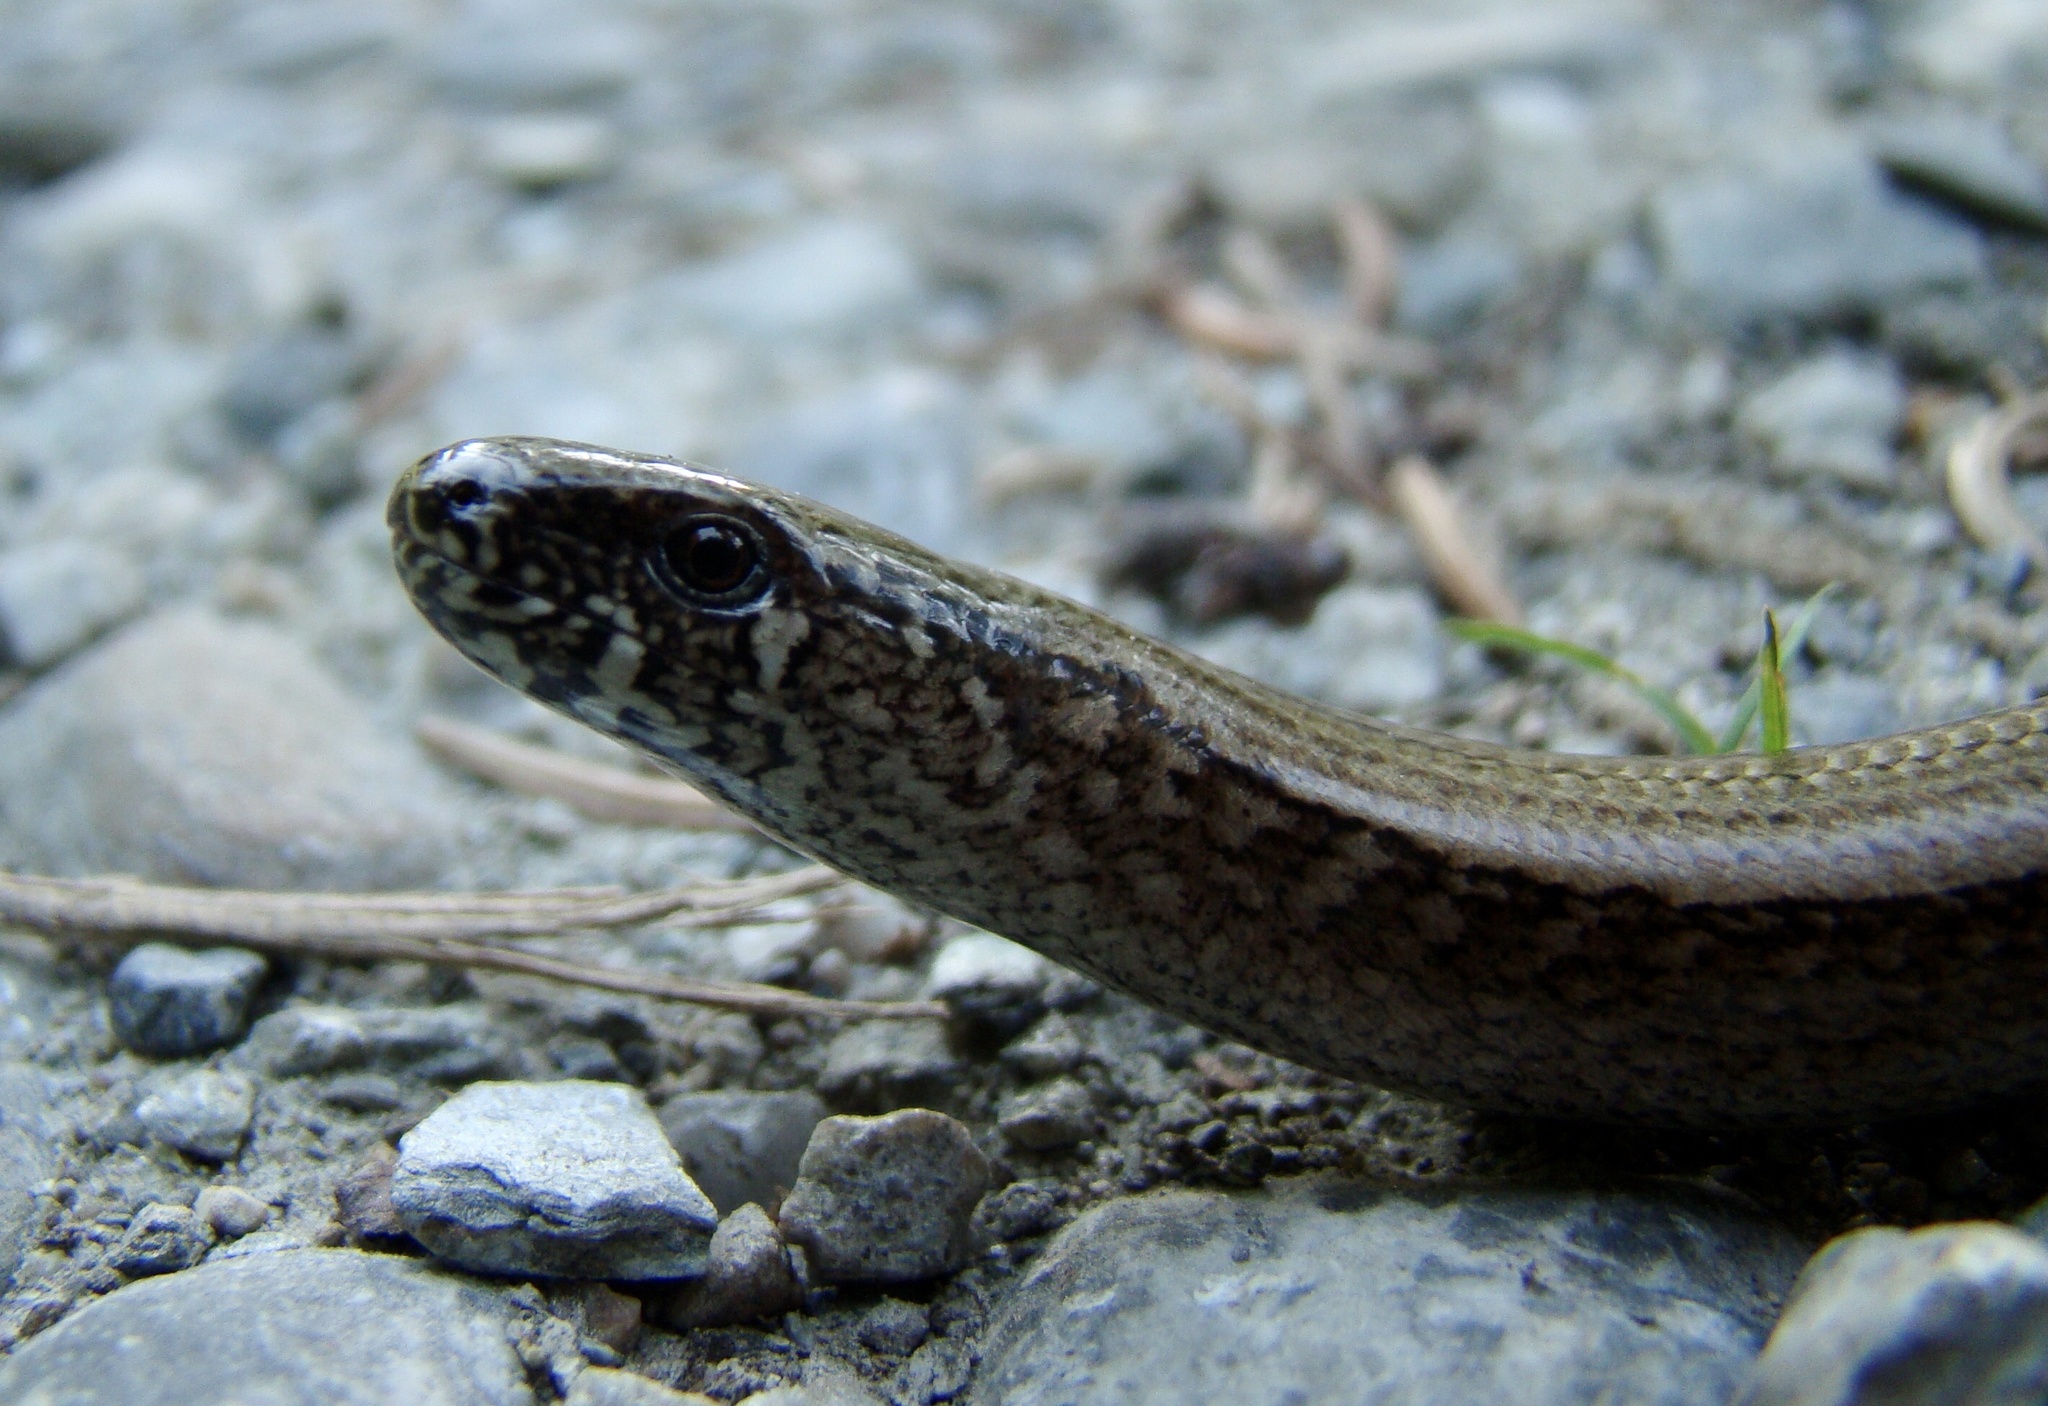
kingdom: Animalia
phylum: Chordata
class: Squamata
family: Anguidae
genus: Anguis
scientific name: Anguis fragilis
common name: Slow worm
